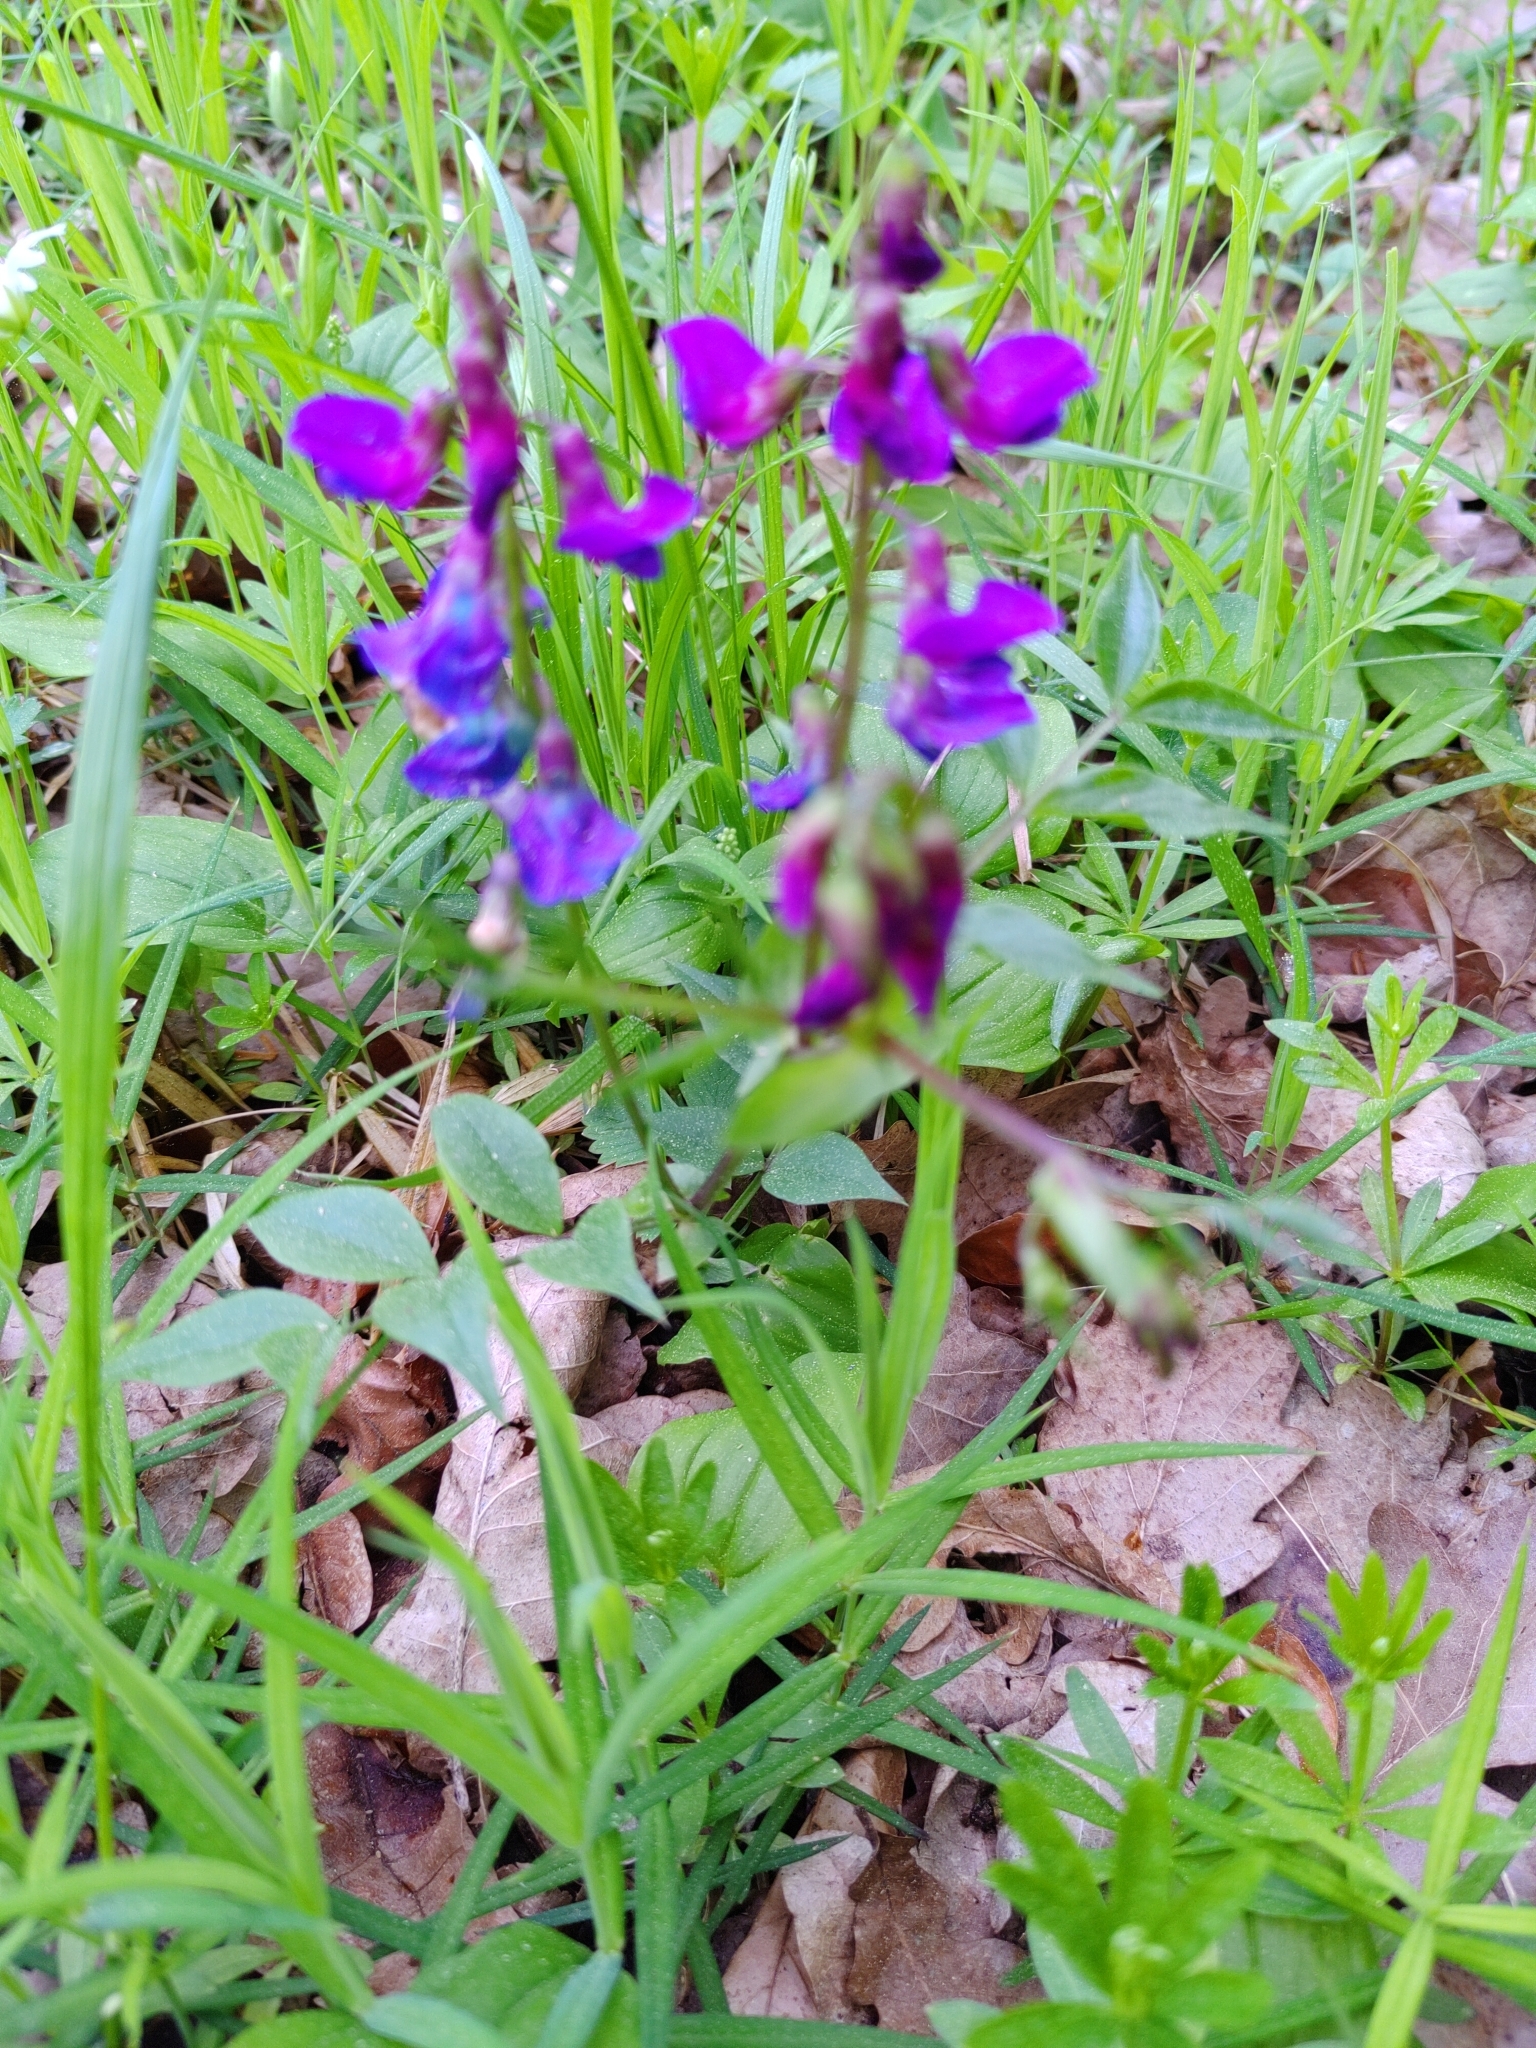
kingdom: Plantae
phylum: Tracheophyta
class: Magnoliopsida
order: Fabales
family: Fabaceae
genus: Lathyrus
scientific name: Lathyrus vernus
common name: Spring pea
